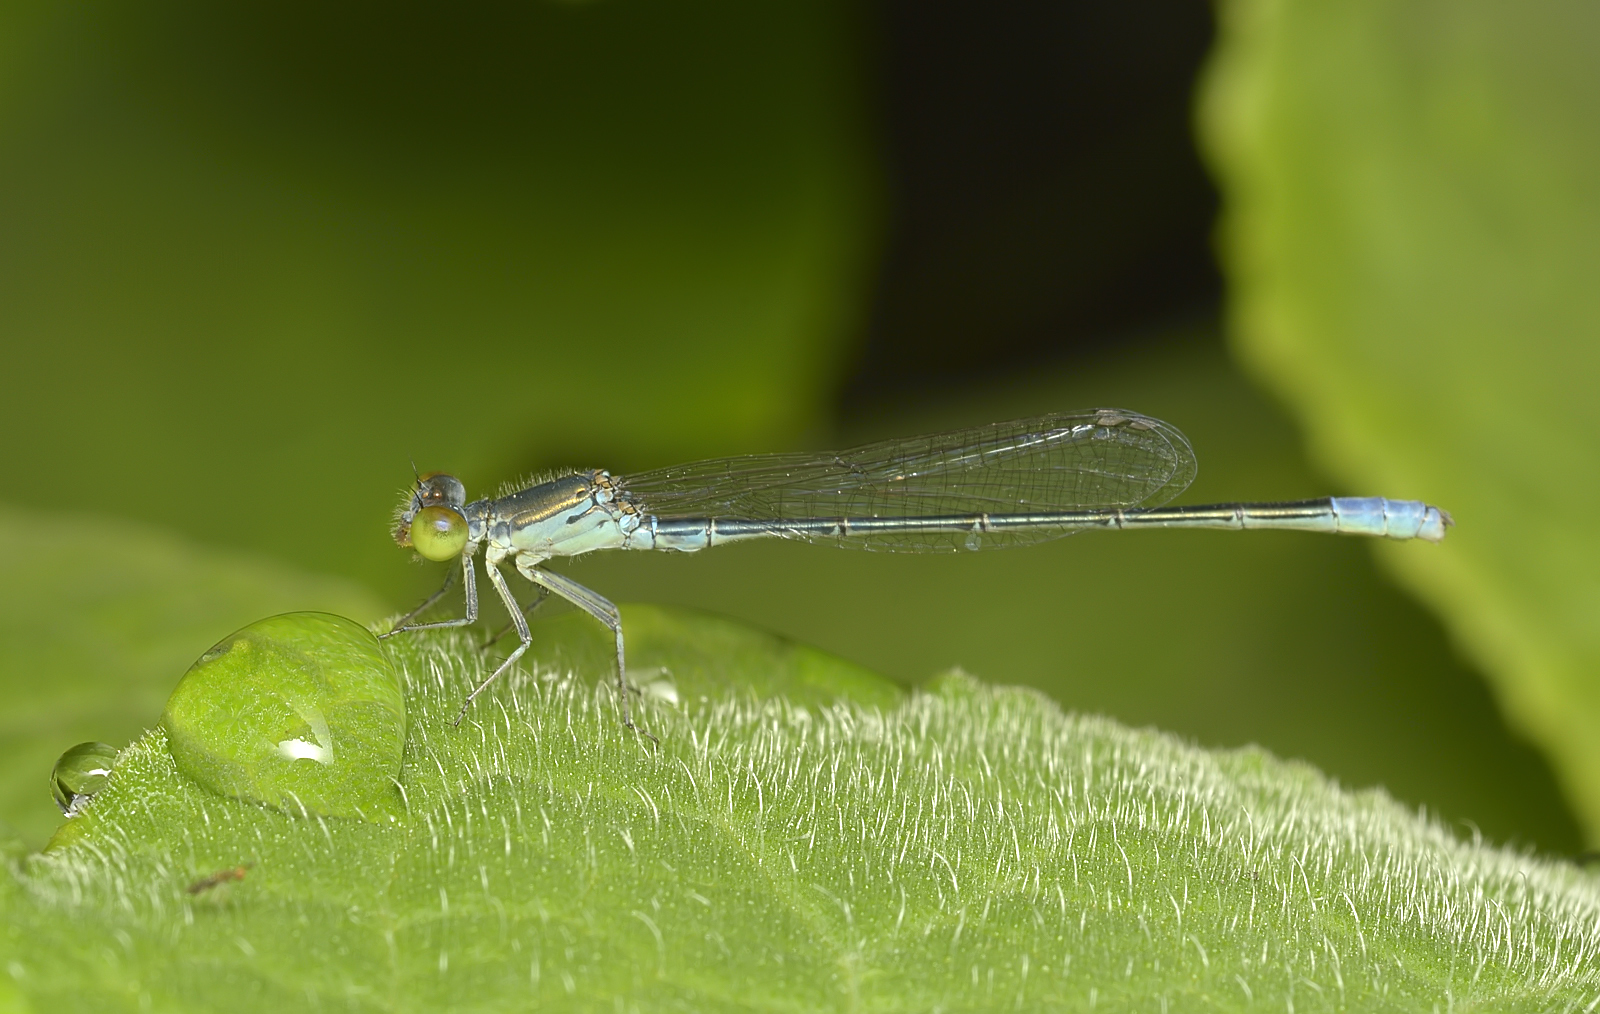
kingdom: Animalia
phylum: Arthropoda
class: Insecta
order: Odonata
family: Coenagrionidae
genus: Paracercion
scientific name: Paracercion calamorum
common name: Dusky lilysquatter
